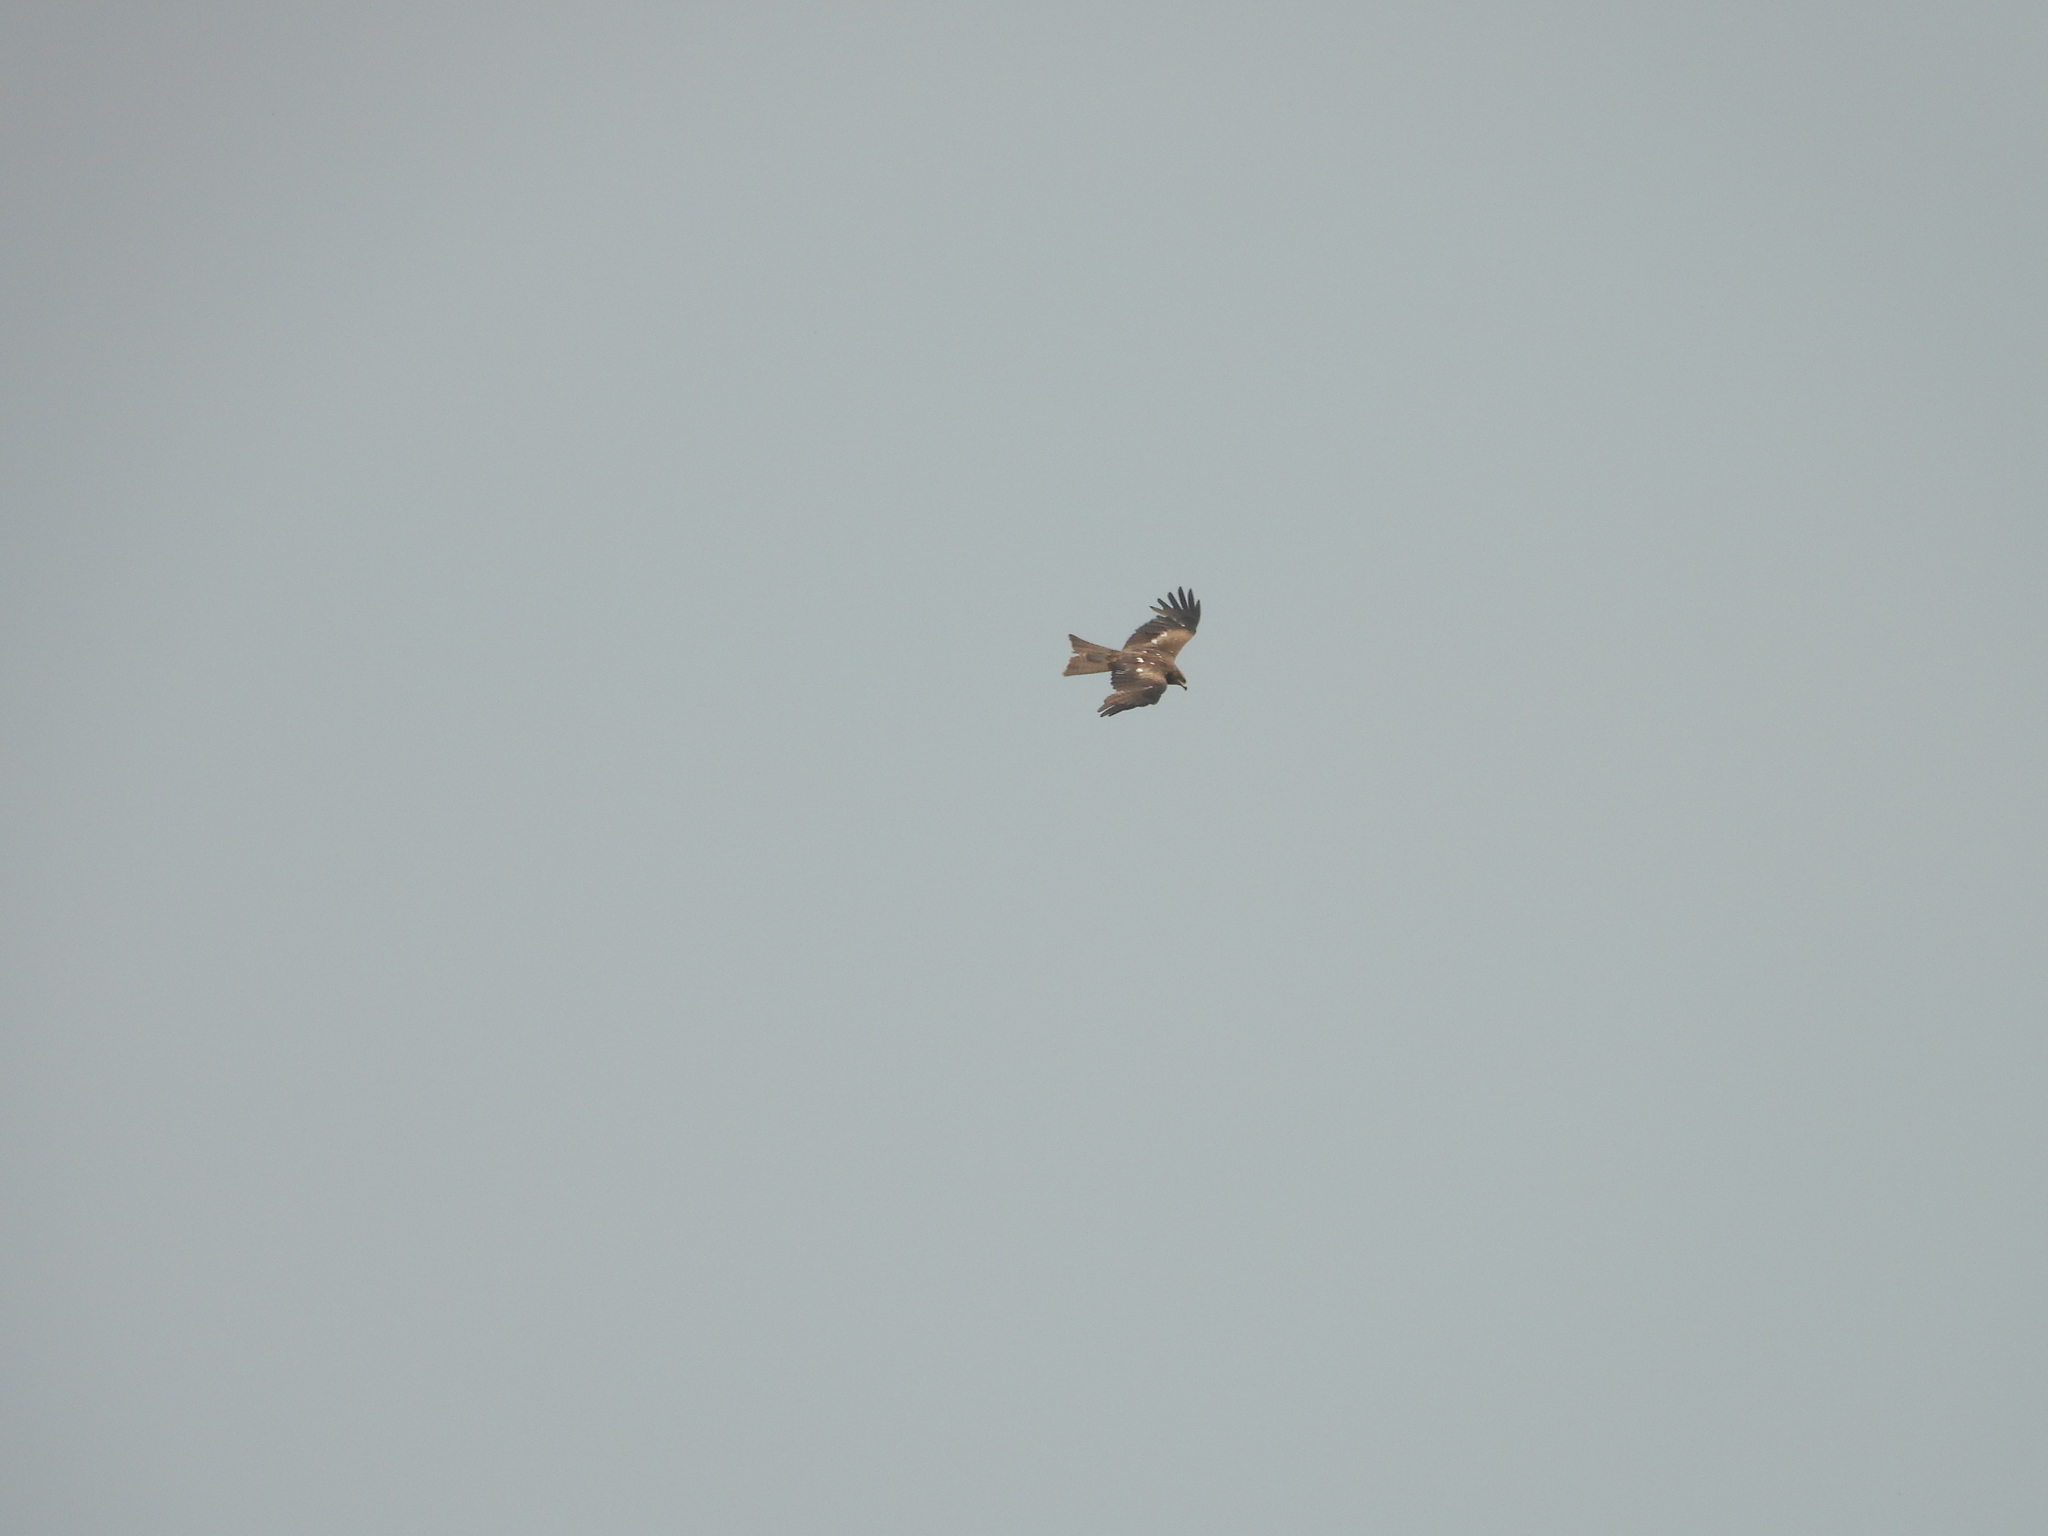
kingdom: Animalia
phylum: Chordata
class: Aves
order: Accipitriformes
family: Accipitridae
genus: Milvus
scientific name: Milvus migrans
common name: Black kite
